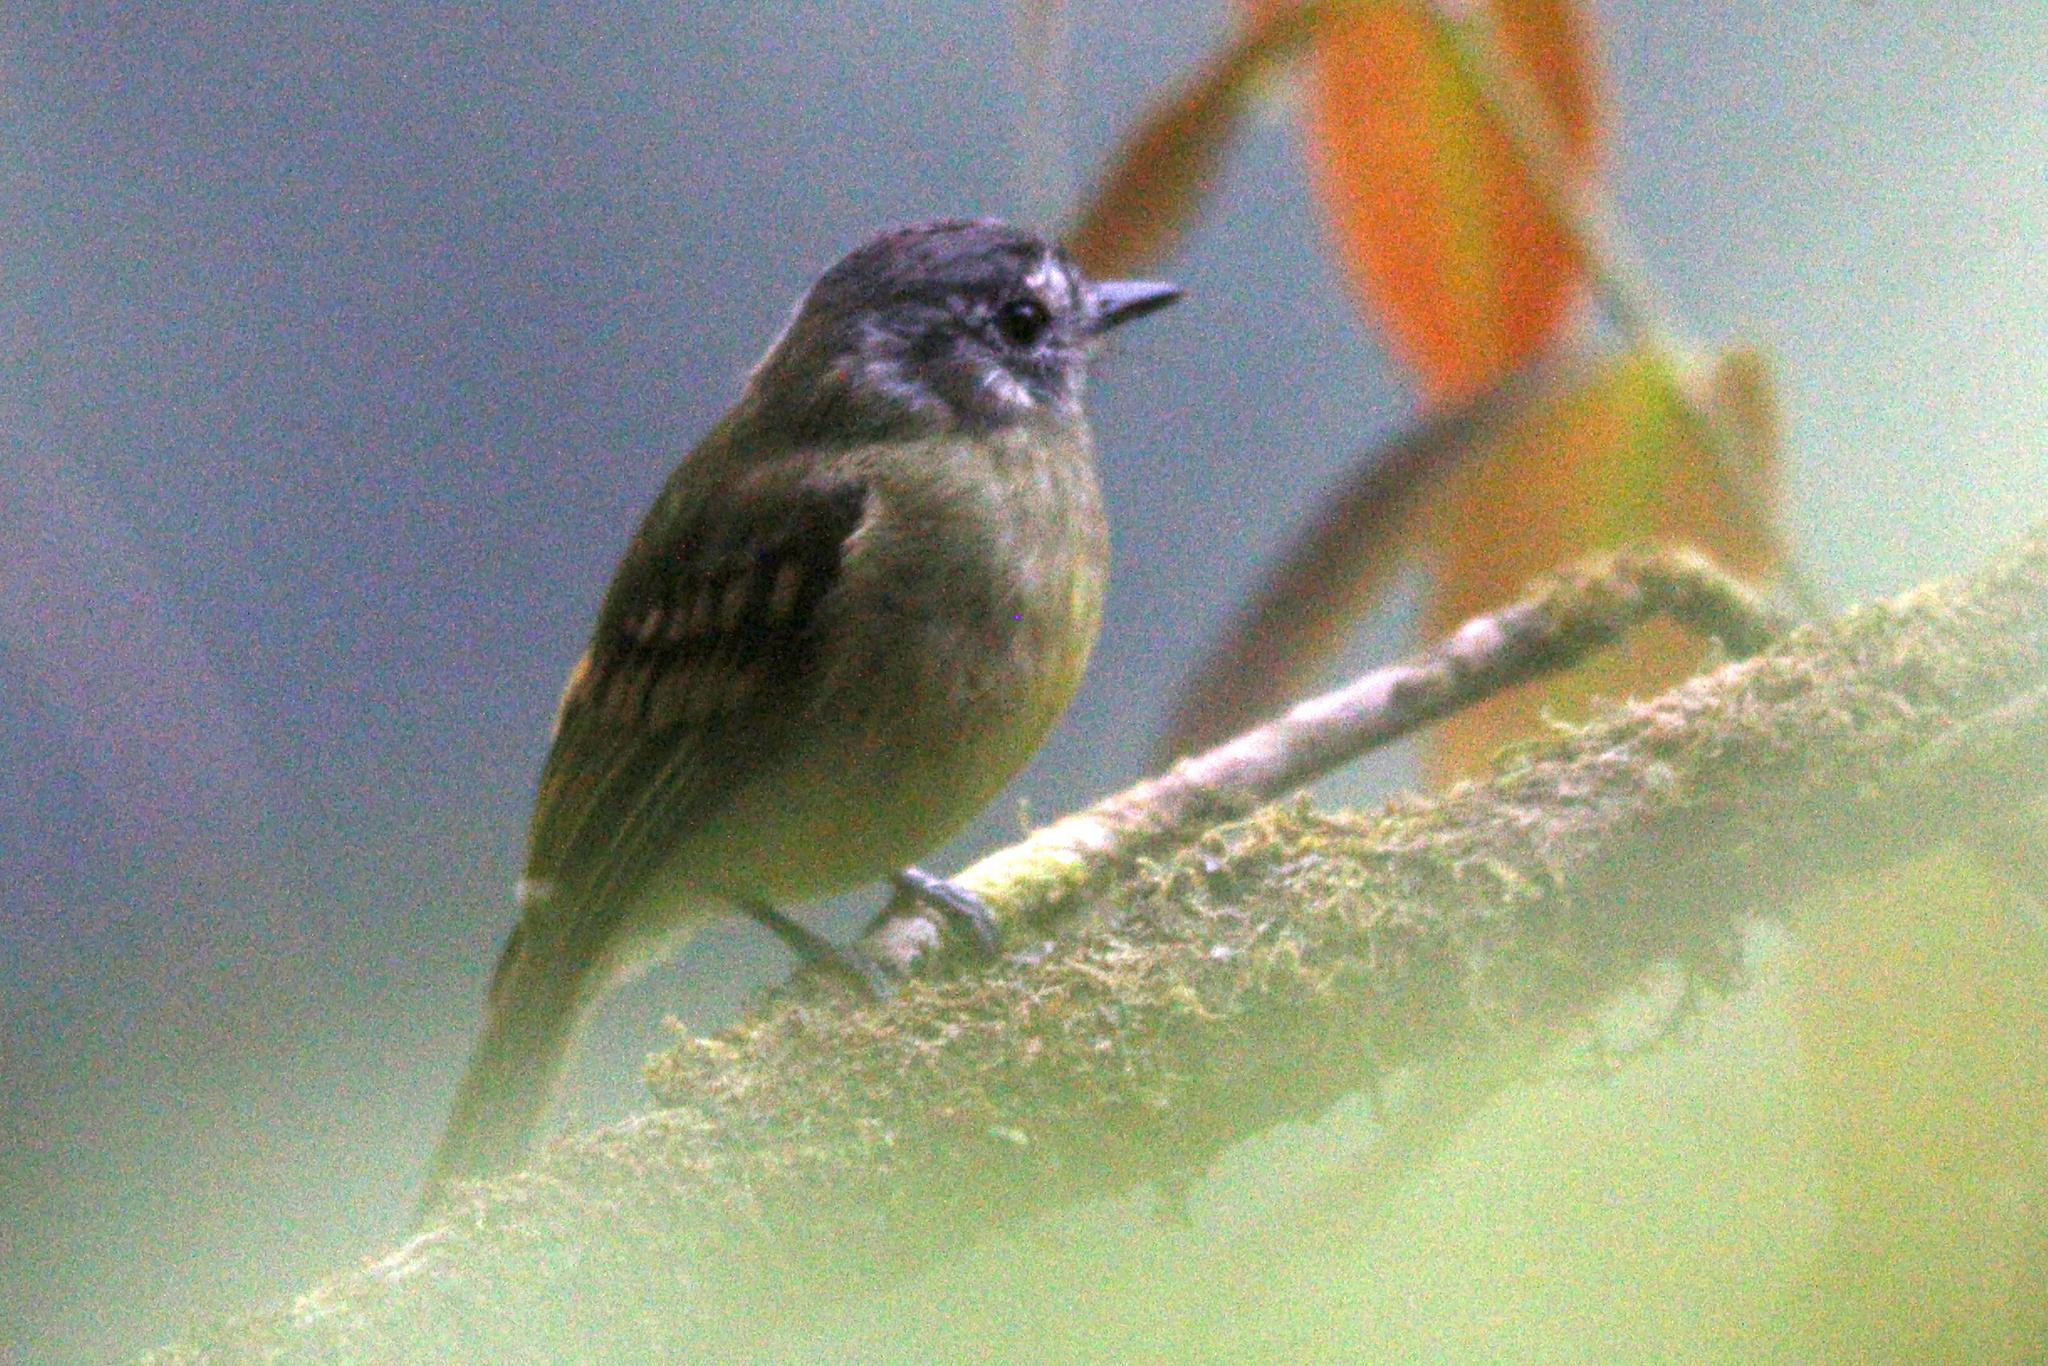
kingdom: Animalia
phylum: Chordata
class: Aves
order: Passeriformes
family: Tyrannidae
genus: Leptopogon
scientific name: Leptopogon superciliaris
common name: Slaty-capped flycatcher
